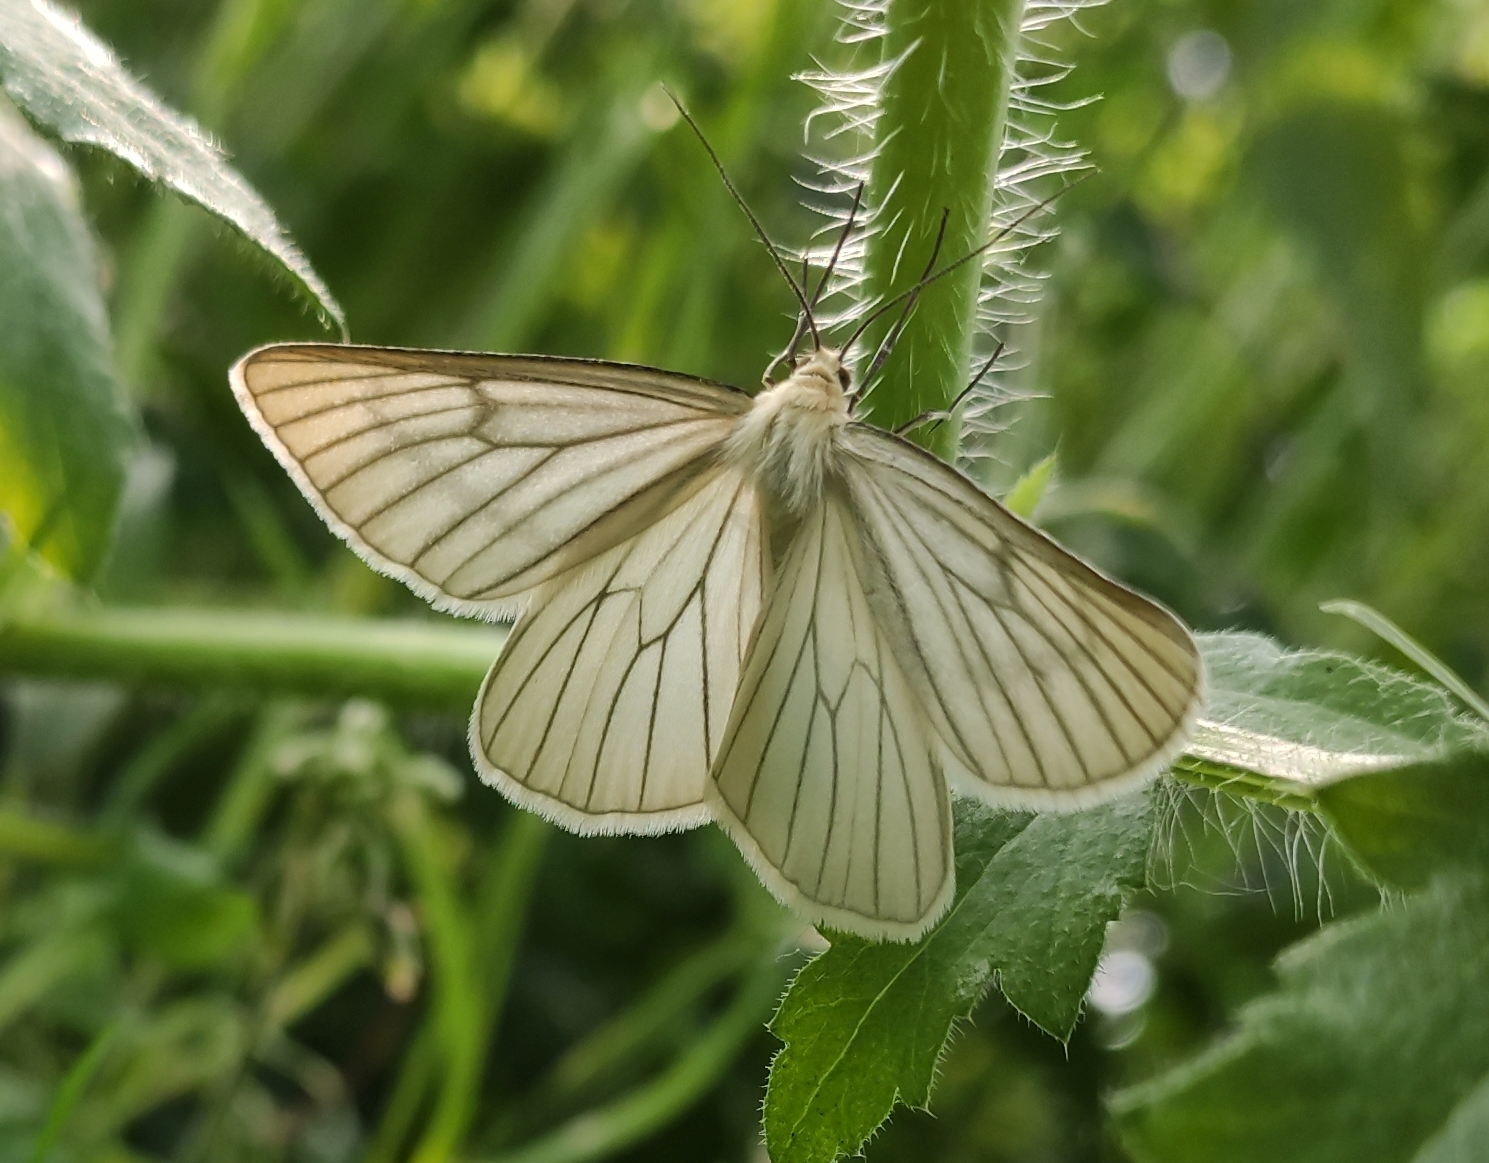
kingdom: Animalia
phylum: Arthropoda
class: Insecta
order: Lepidoptera
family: Geometridae
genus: Siona
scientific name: Siona lineata
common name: Black-veined moth
